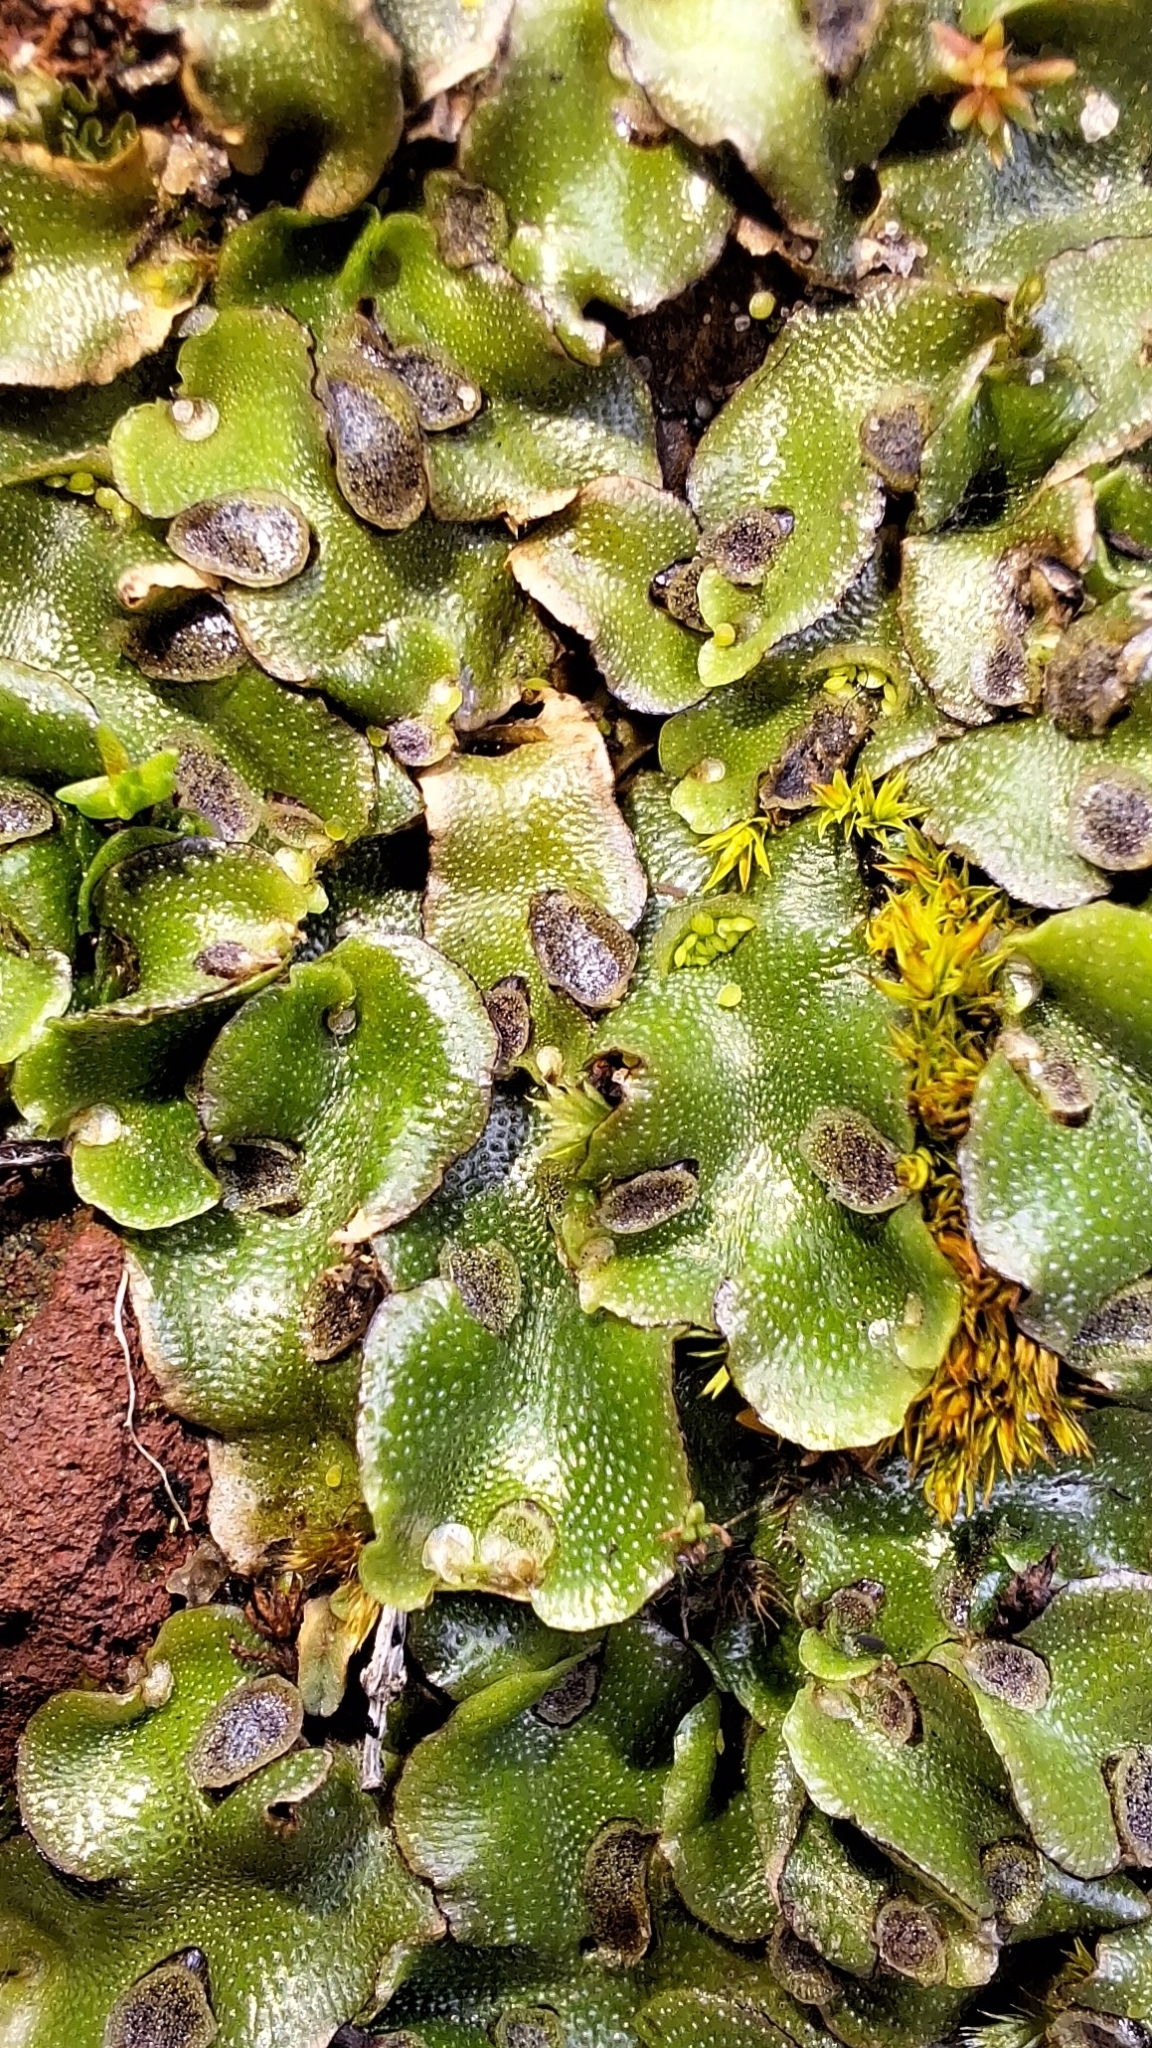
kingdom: Plantae
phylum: Marchantiophyta
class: Marchantiopsida
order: Lunulariales
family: Lunulariaceae
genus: Lunularia
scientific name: Lunularia cruciata
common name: Crescent-cup liverwort
